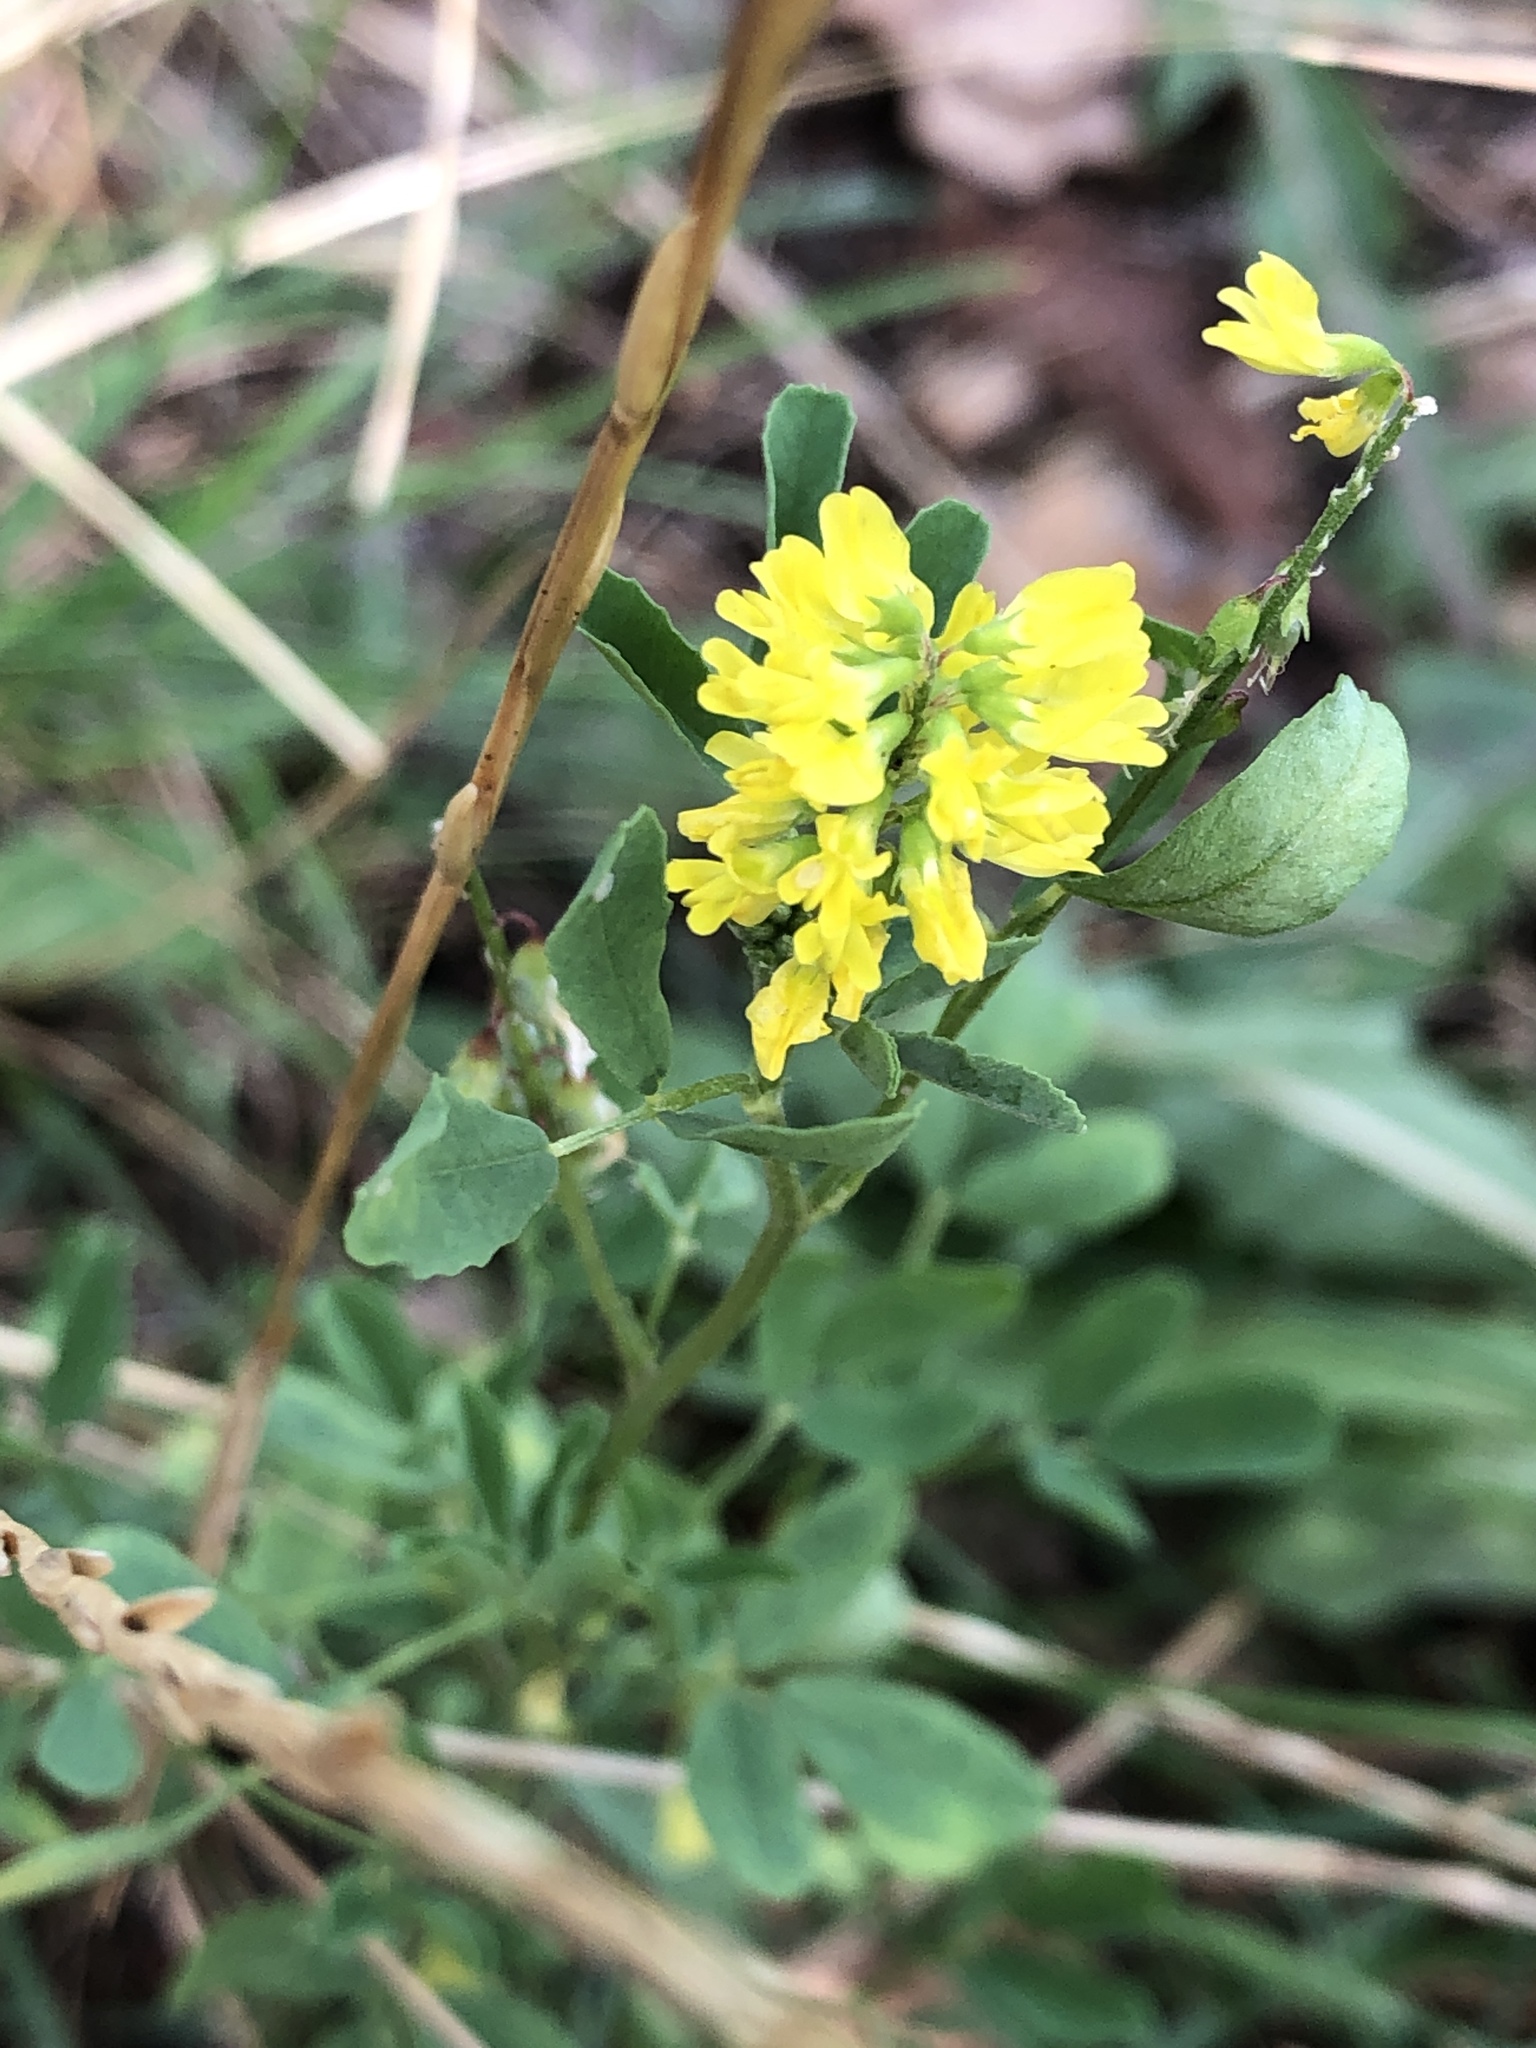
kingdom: Plantae
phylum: Tracheophyta
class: Magnoliopsida
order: Fabales
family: Fabaceae
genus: Melilotus
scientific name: Melilotus officinalis
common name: Sweetclover
